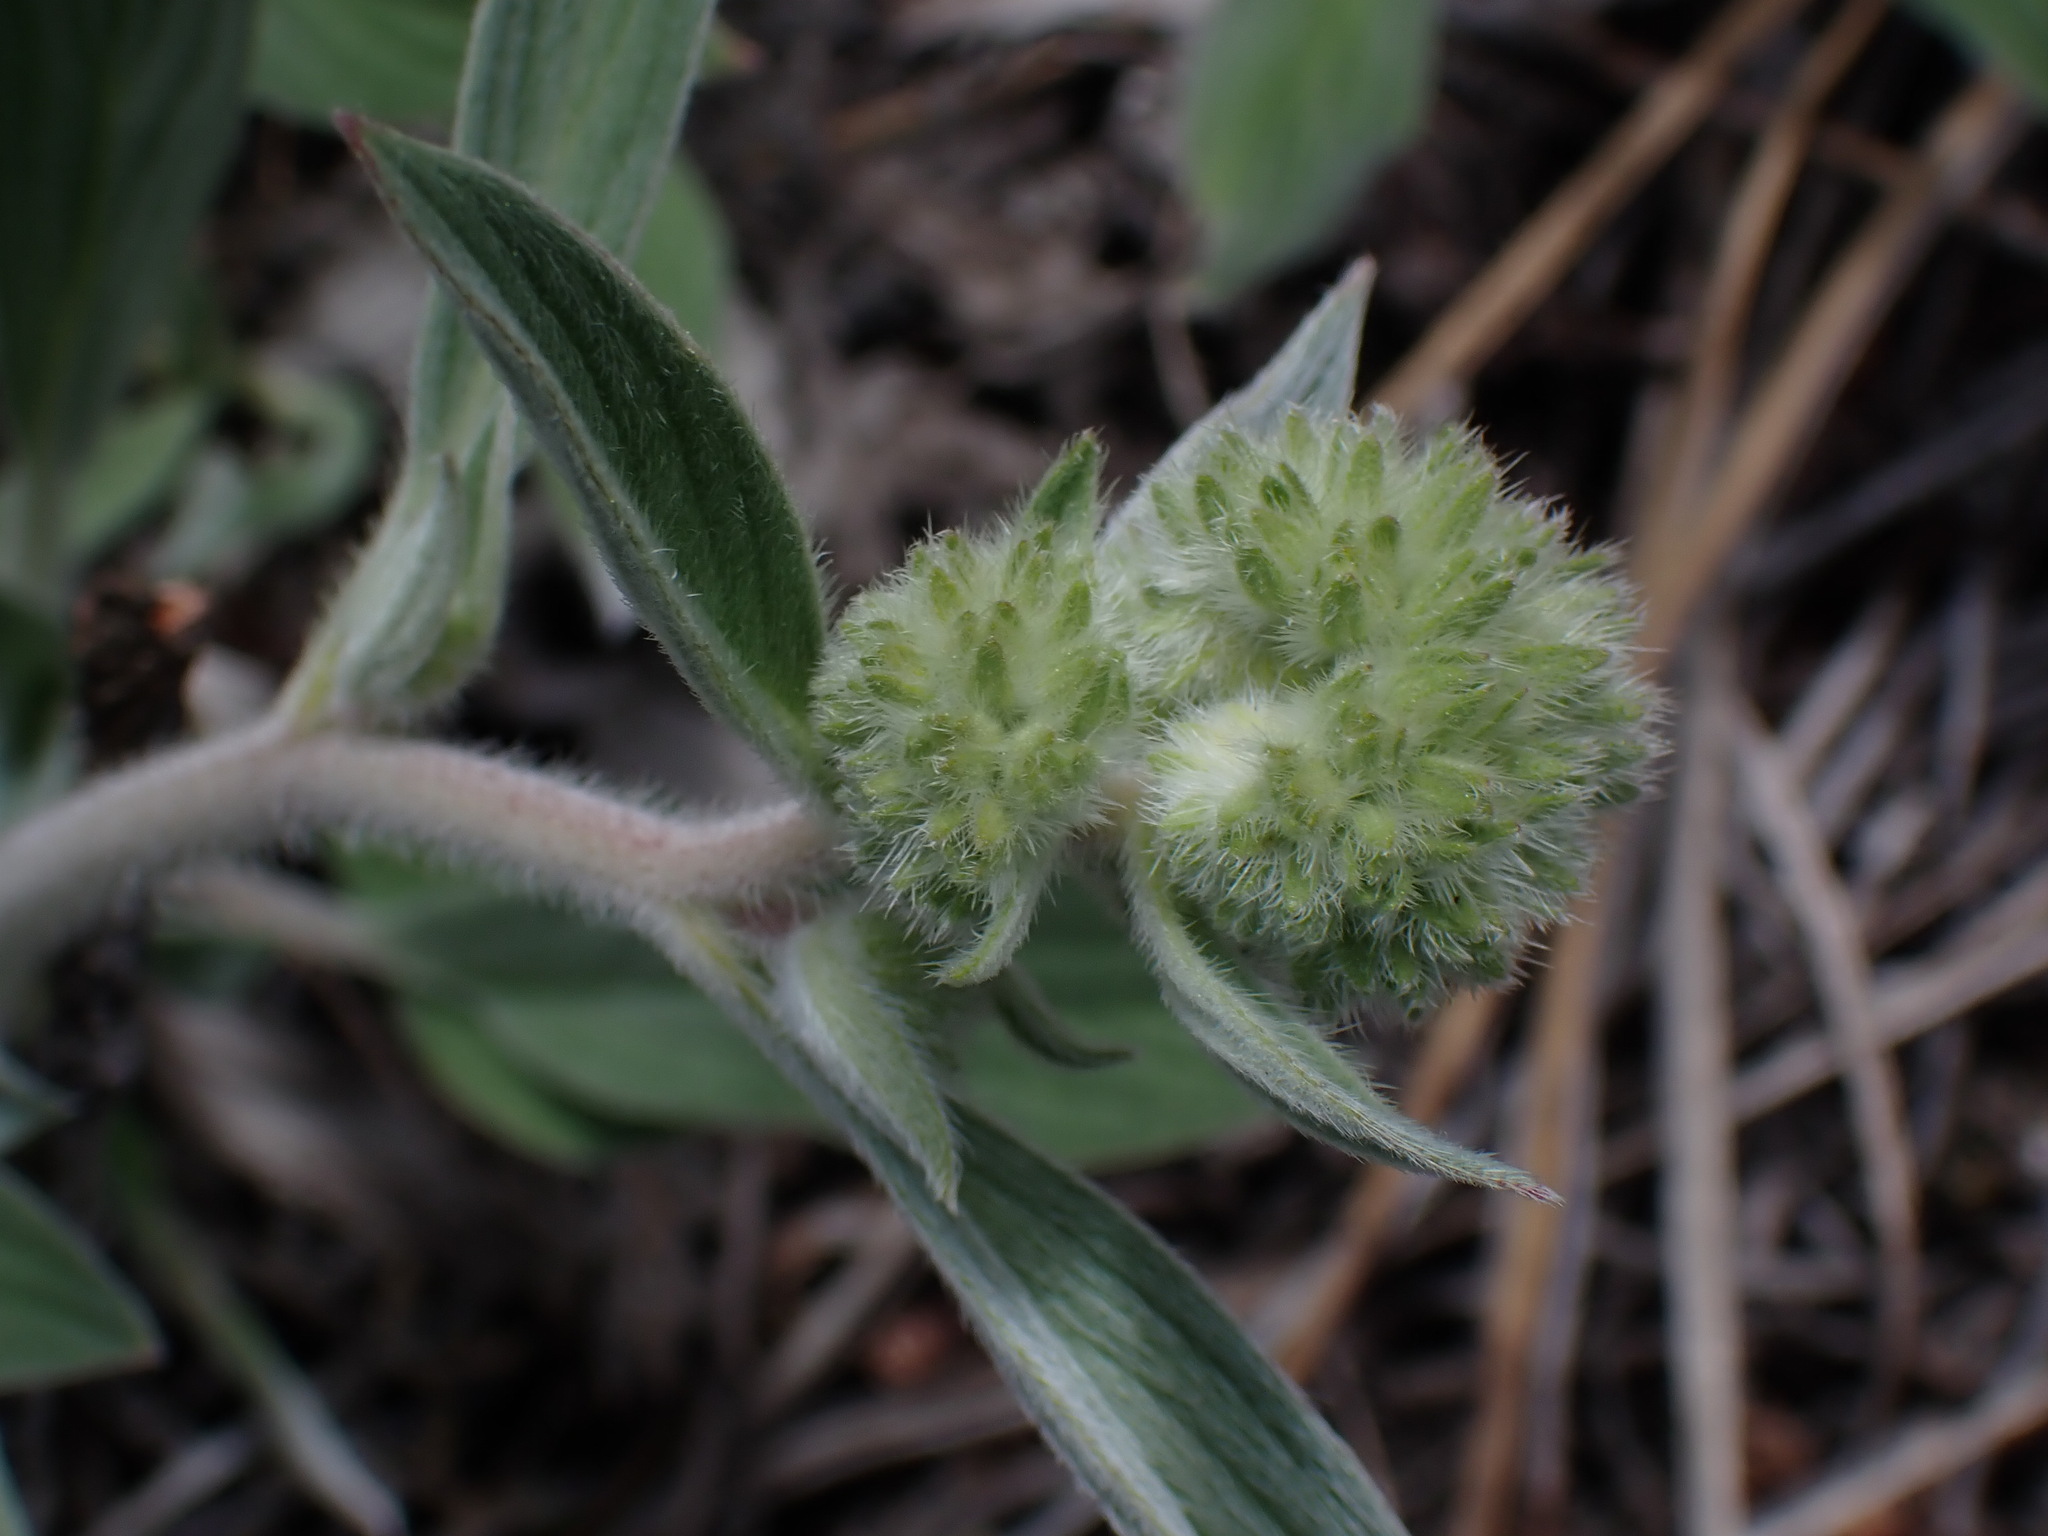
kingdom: Plantae
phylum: Tracheophyta
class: Magnoliopsida
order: Boraginales
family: Hydrophyllaceae
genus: Phacelia
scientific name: Phacelia hastata
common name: Silver-leaved phacelia
